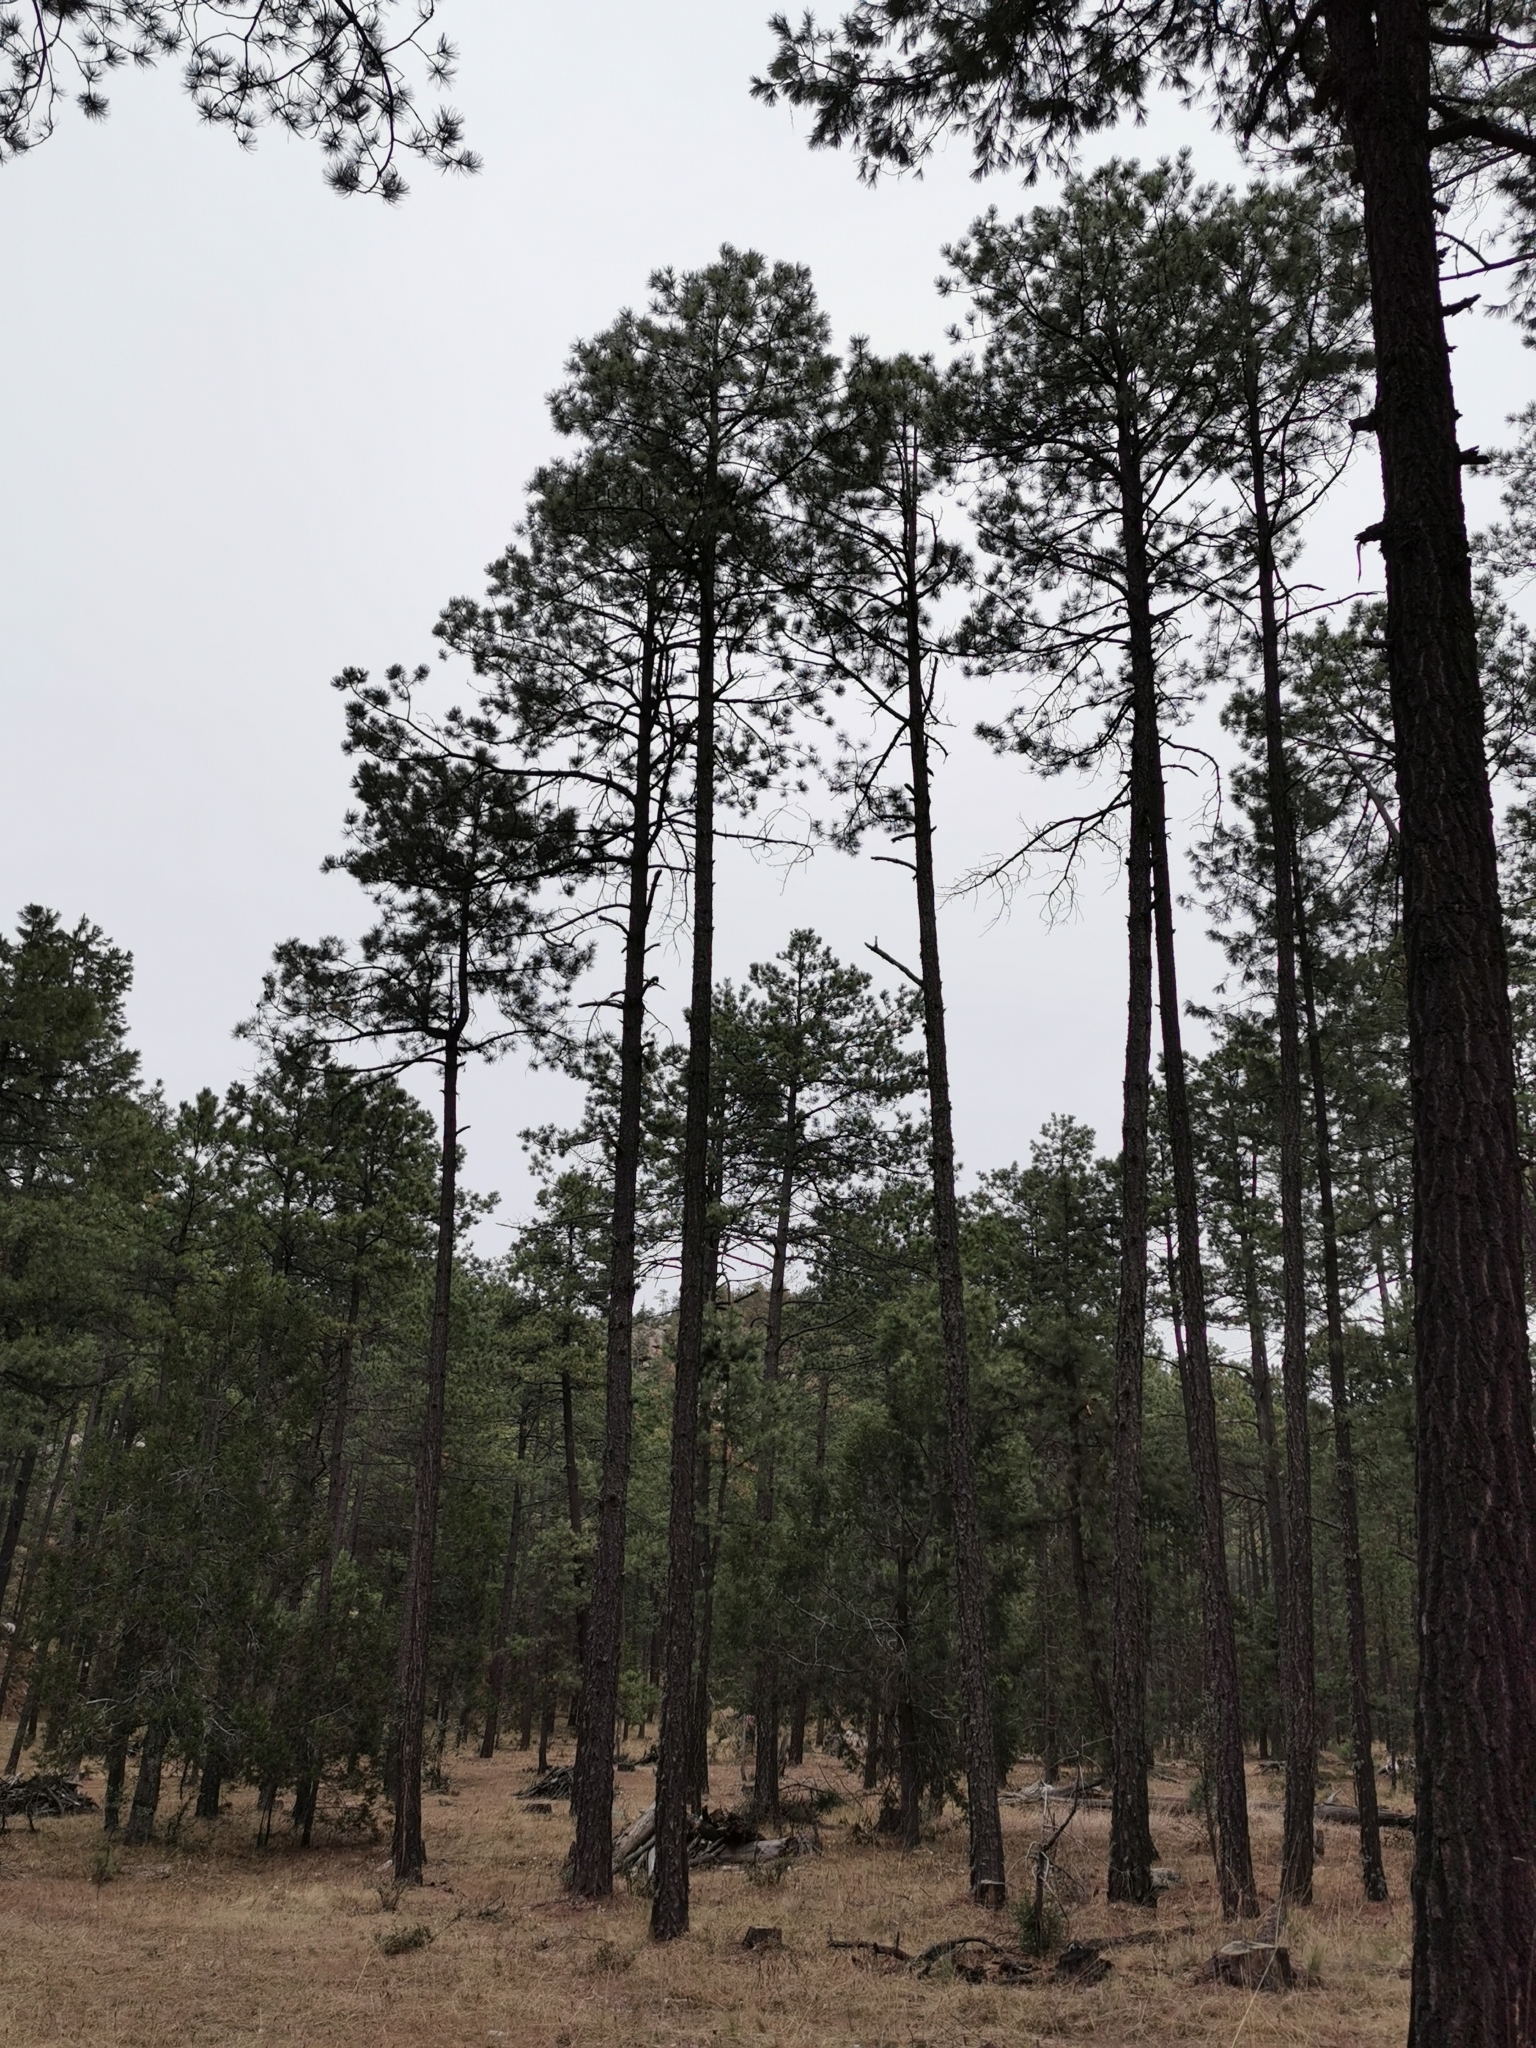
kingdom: Plantae
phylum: Tracheophyta
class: Pinopsida
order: Pinales
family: Pinaceae
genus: Pinus
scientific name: Pinus arizonica
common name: Arizona pine
